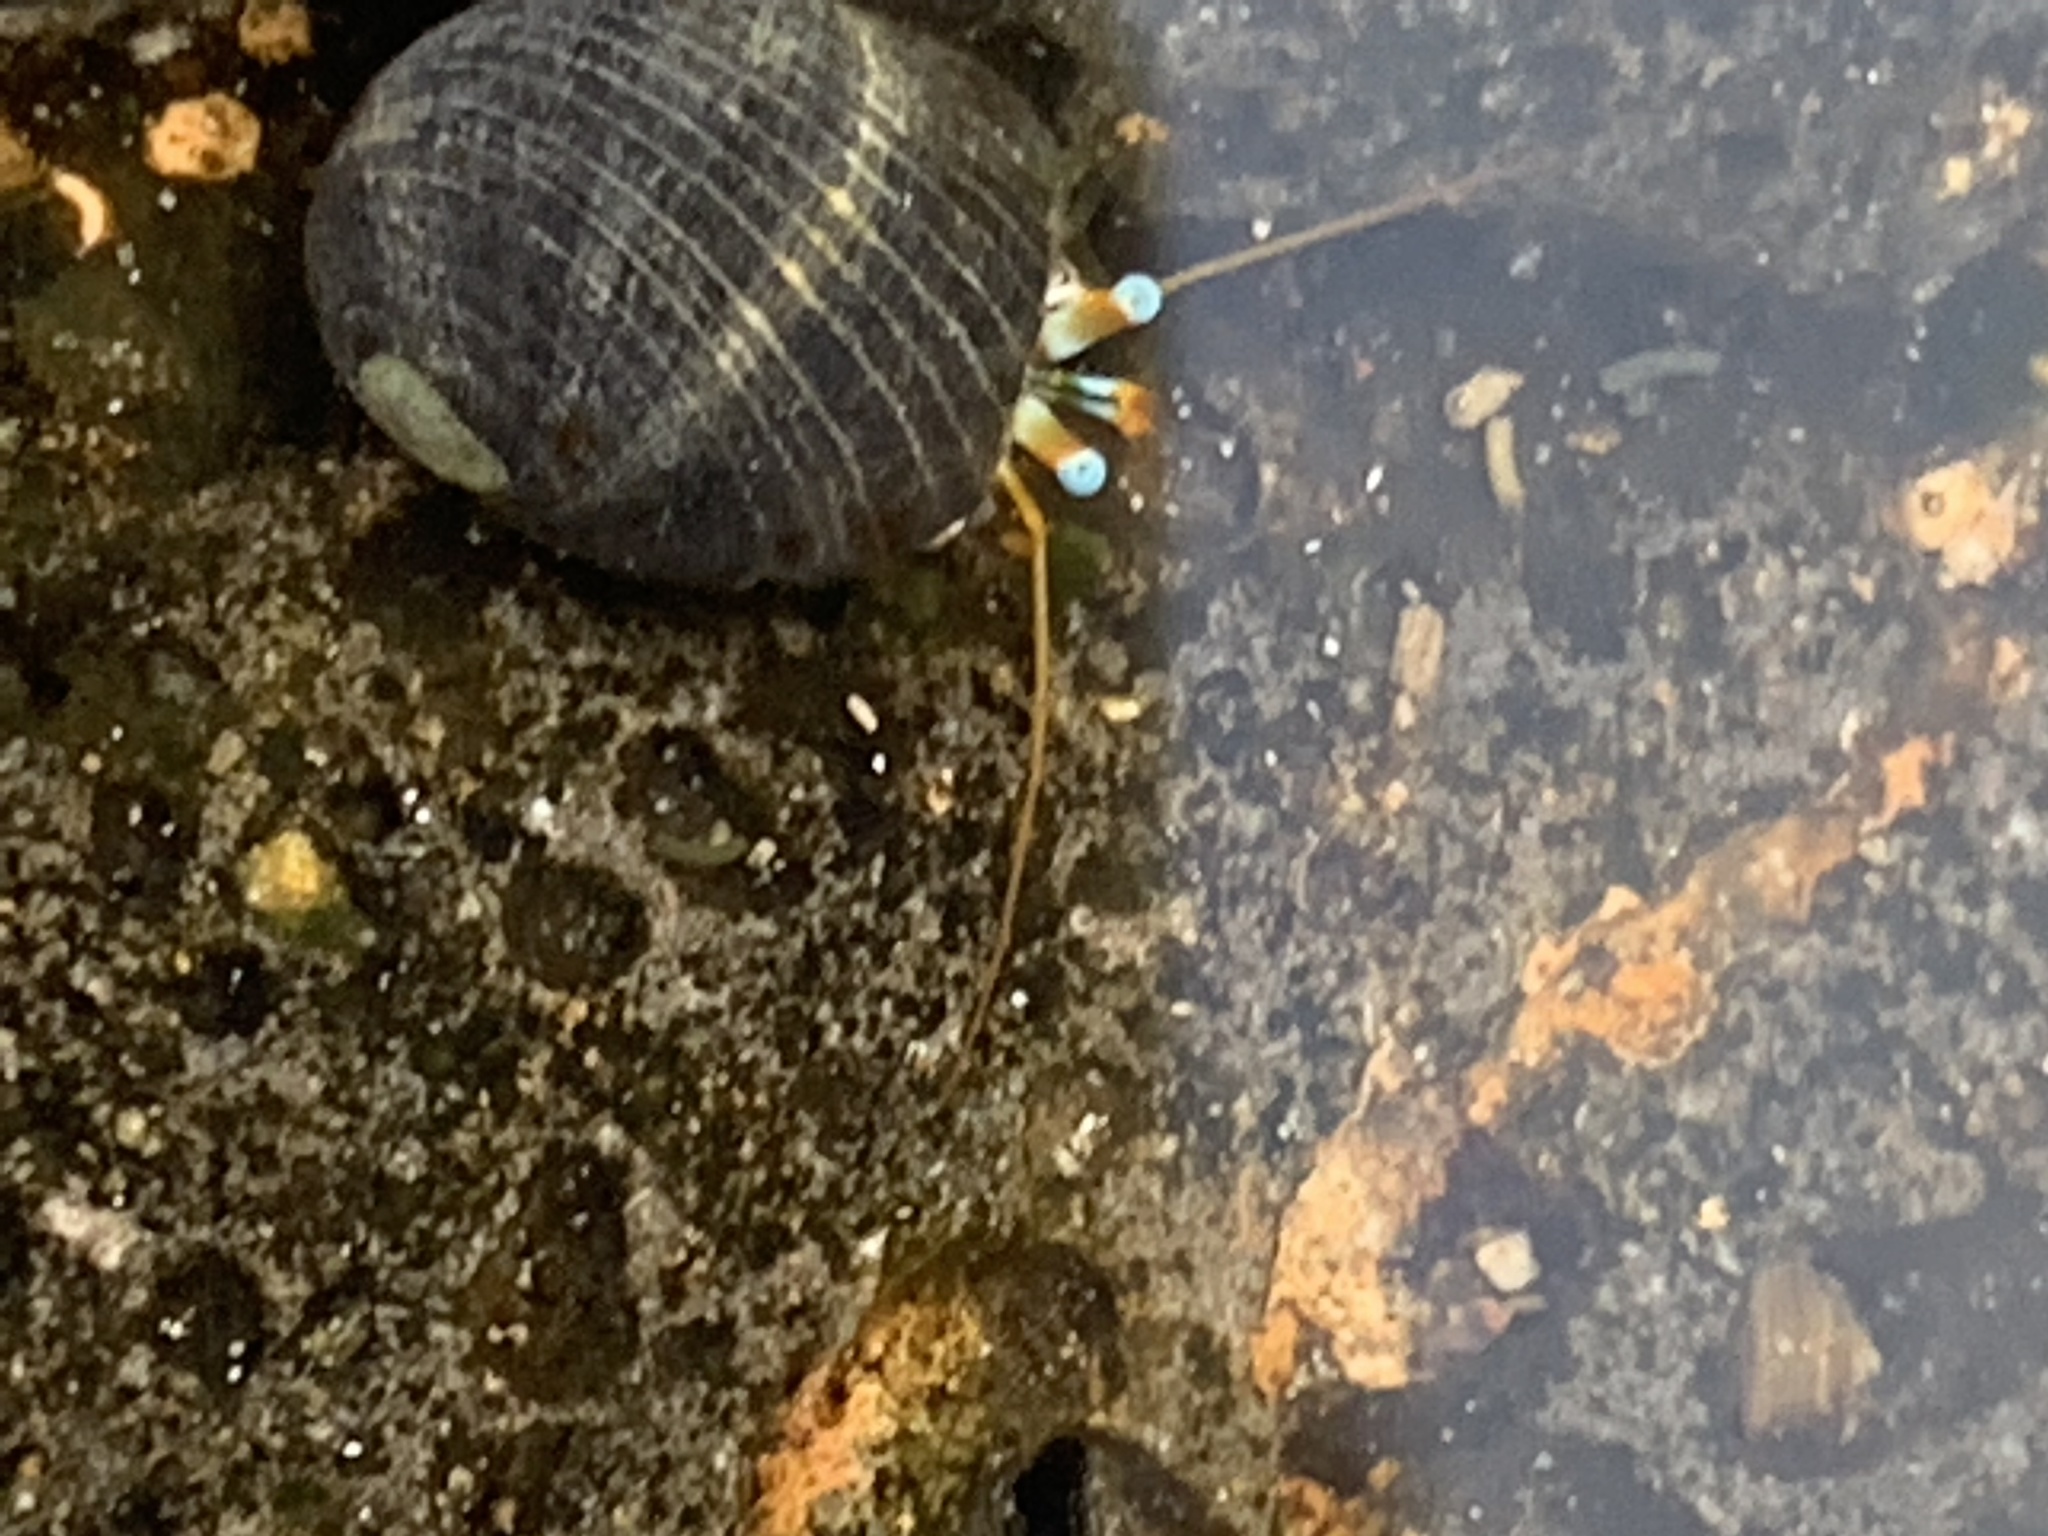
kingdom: Animalia
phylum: Arthropoda
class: Malacostraca
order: Decapoda
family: Diogenidae
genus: Calcinus
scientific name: Calcinus seurati
